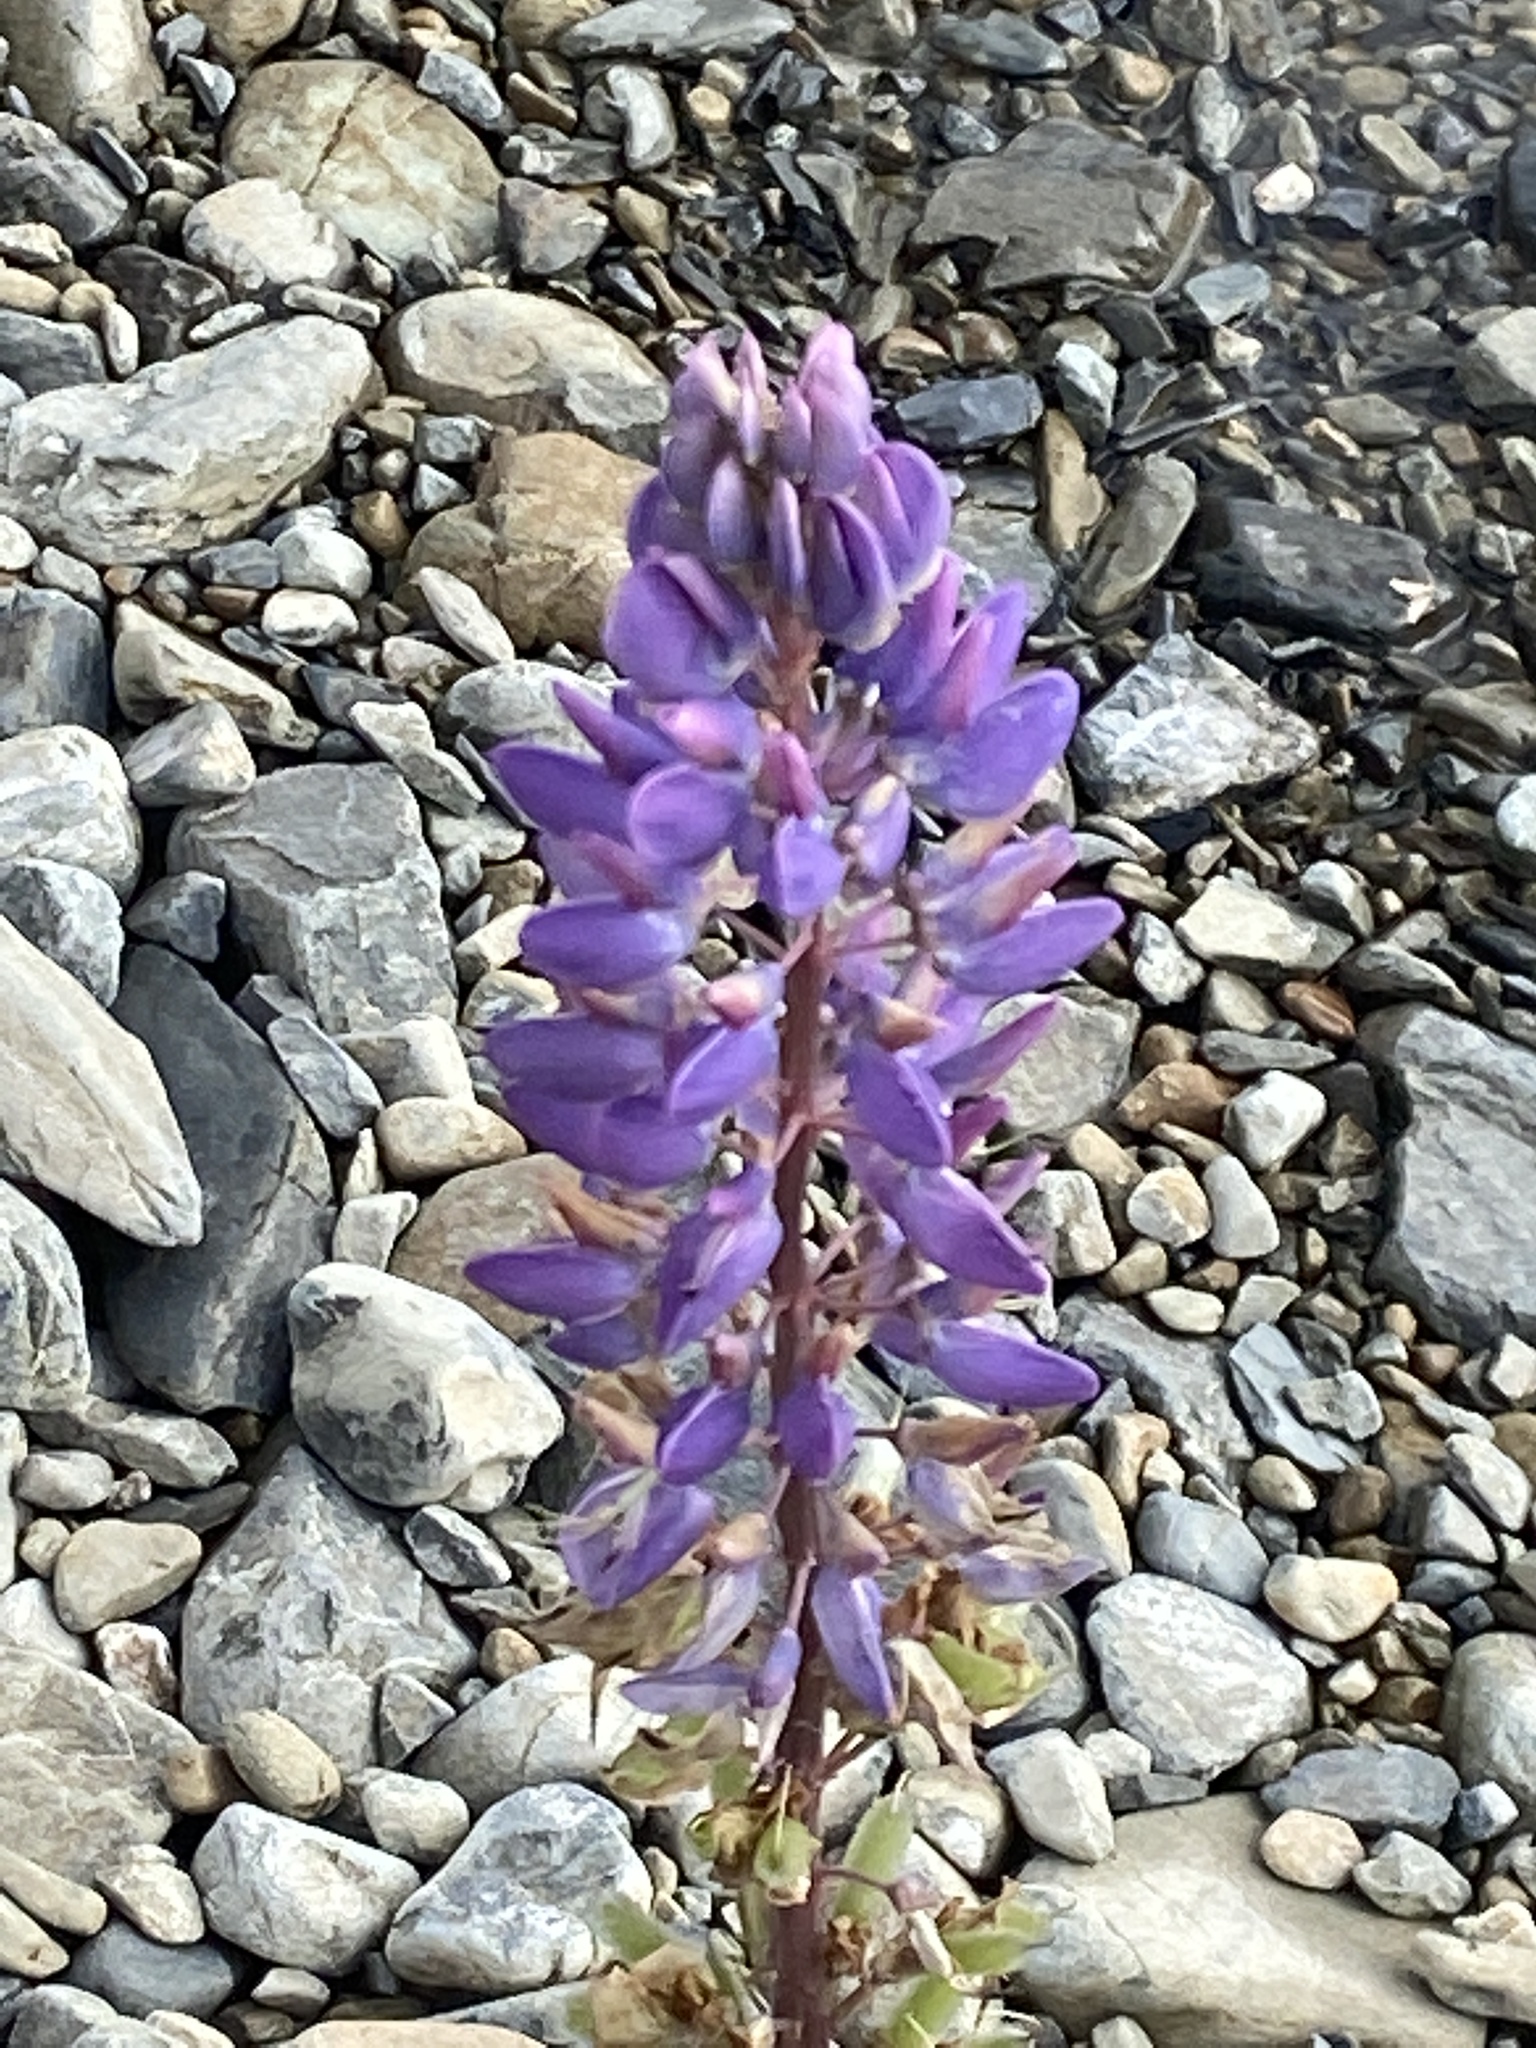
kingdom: Plantae
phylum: Tracheophyta
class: Magnoliopsida
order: Fabales
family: Fabaceae
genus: Lupinus
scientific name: Lupinus polyphyllus
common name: Garden lupin
